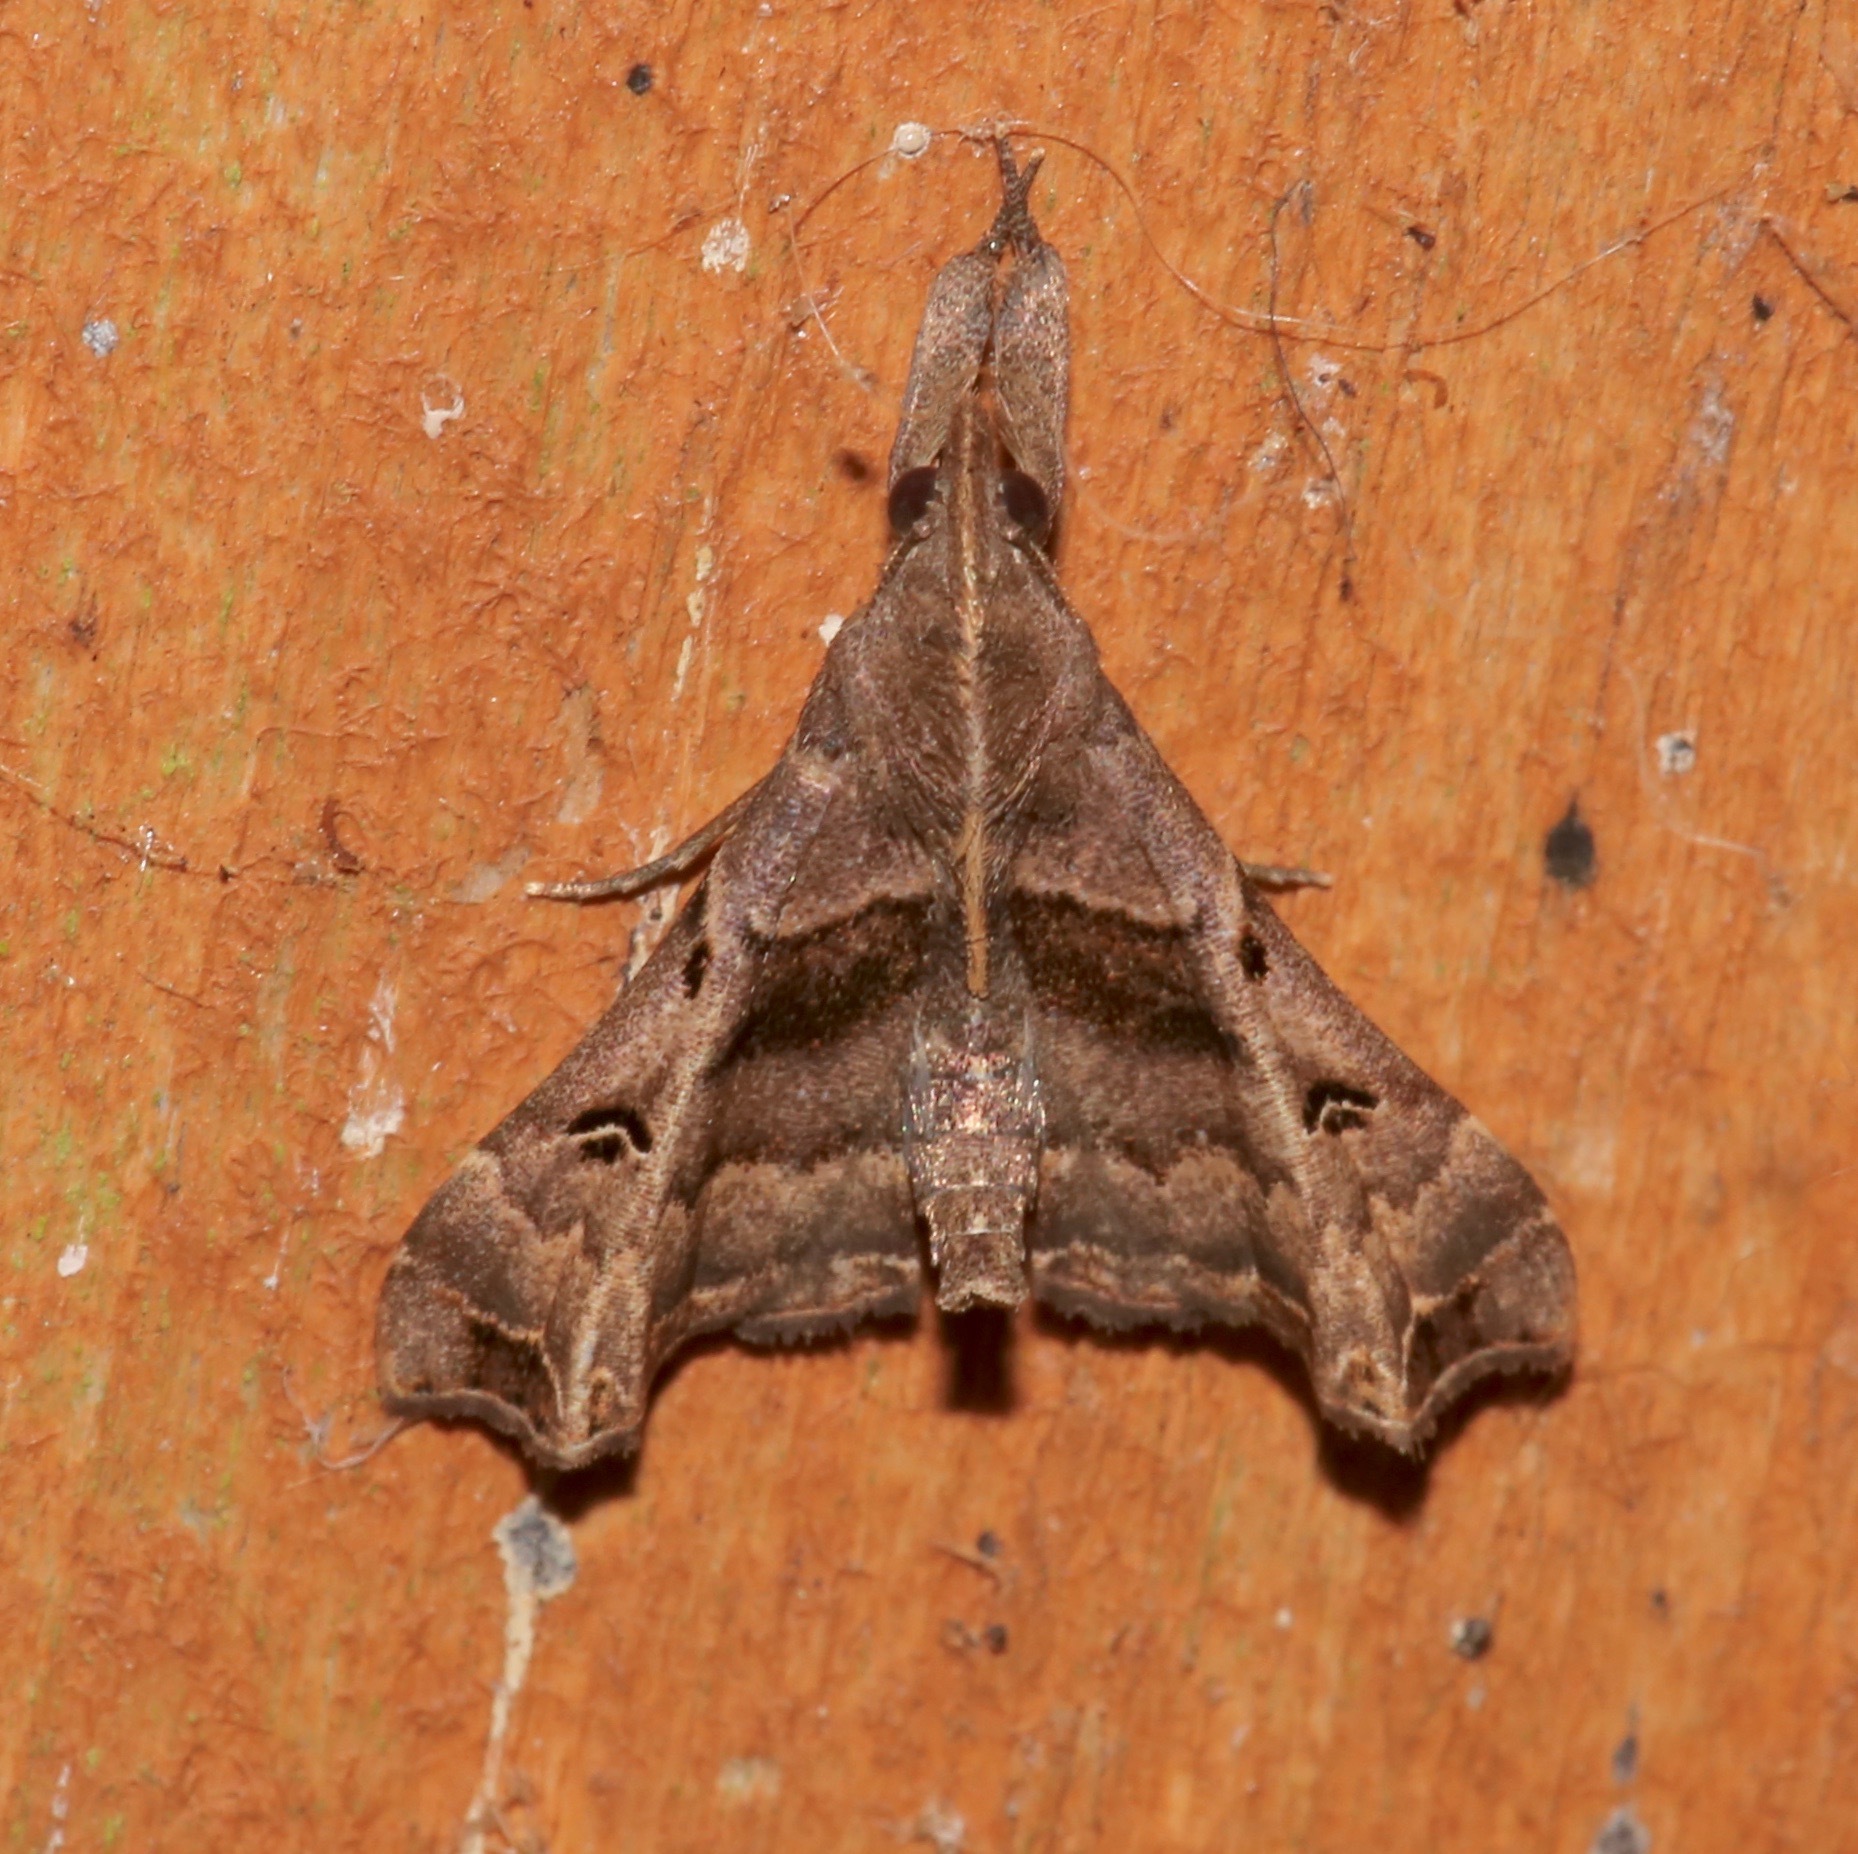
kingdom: Animalia
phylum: Arthropoda
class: Insecta
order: Lepidoptera
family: Erebidae
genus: Palthis
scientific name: Palthis asopialis
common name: Faint-spotted palthis moth
